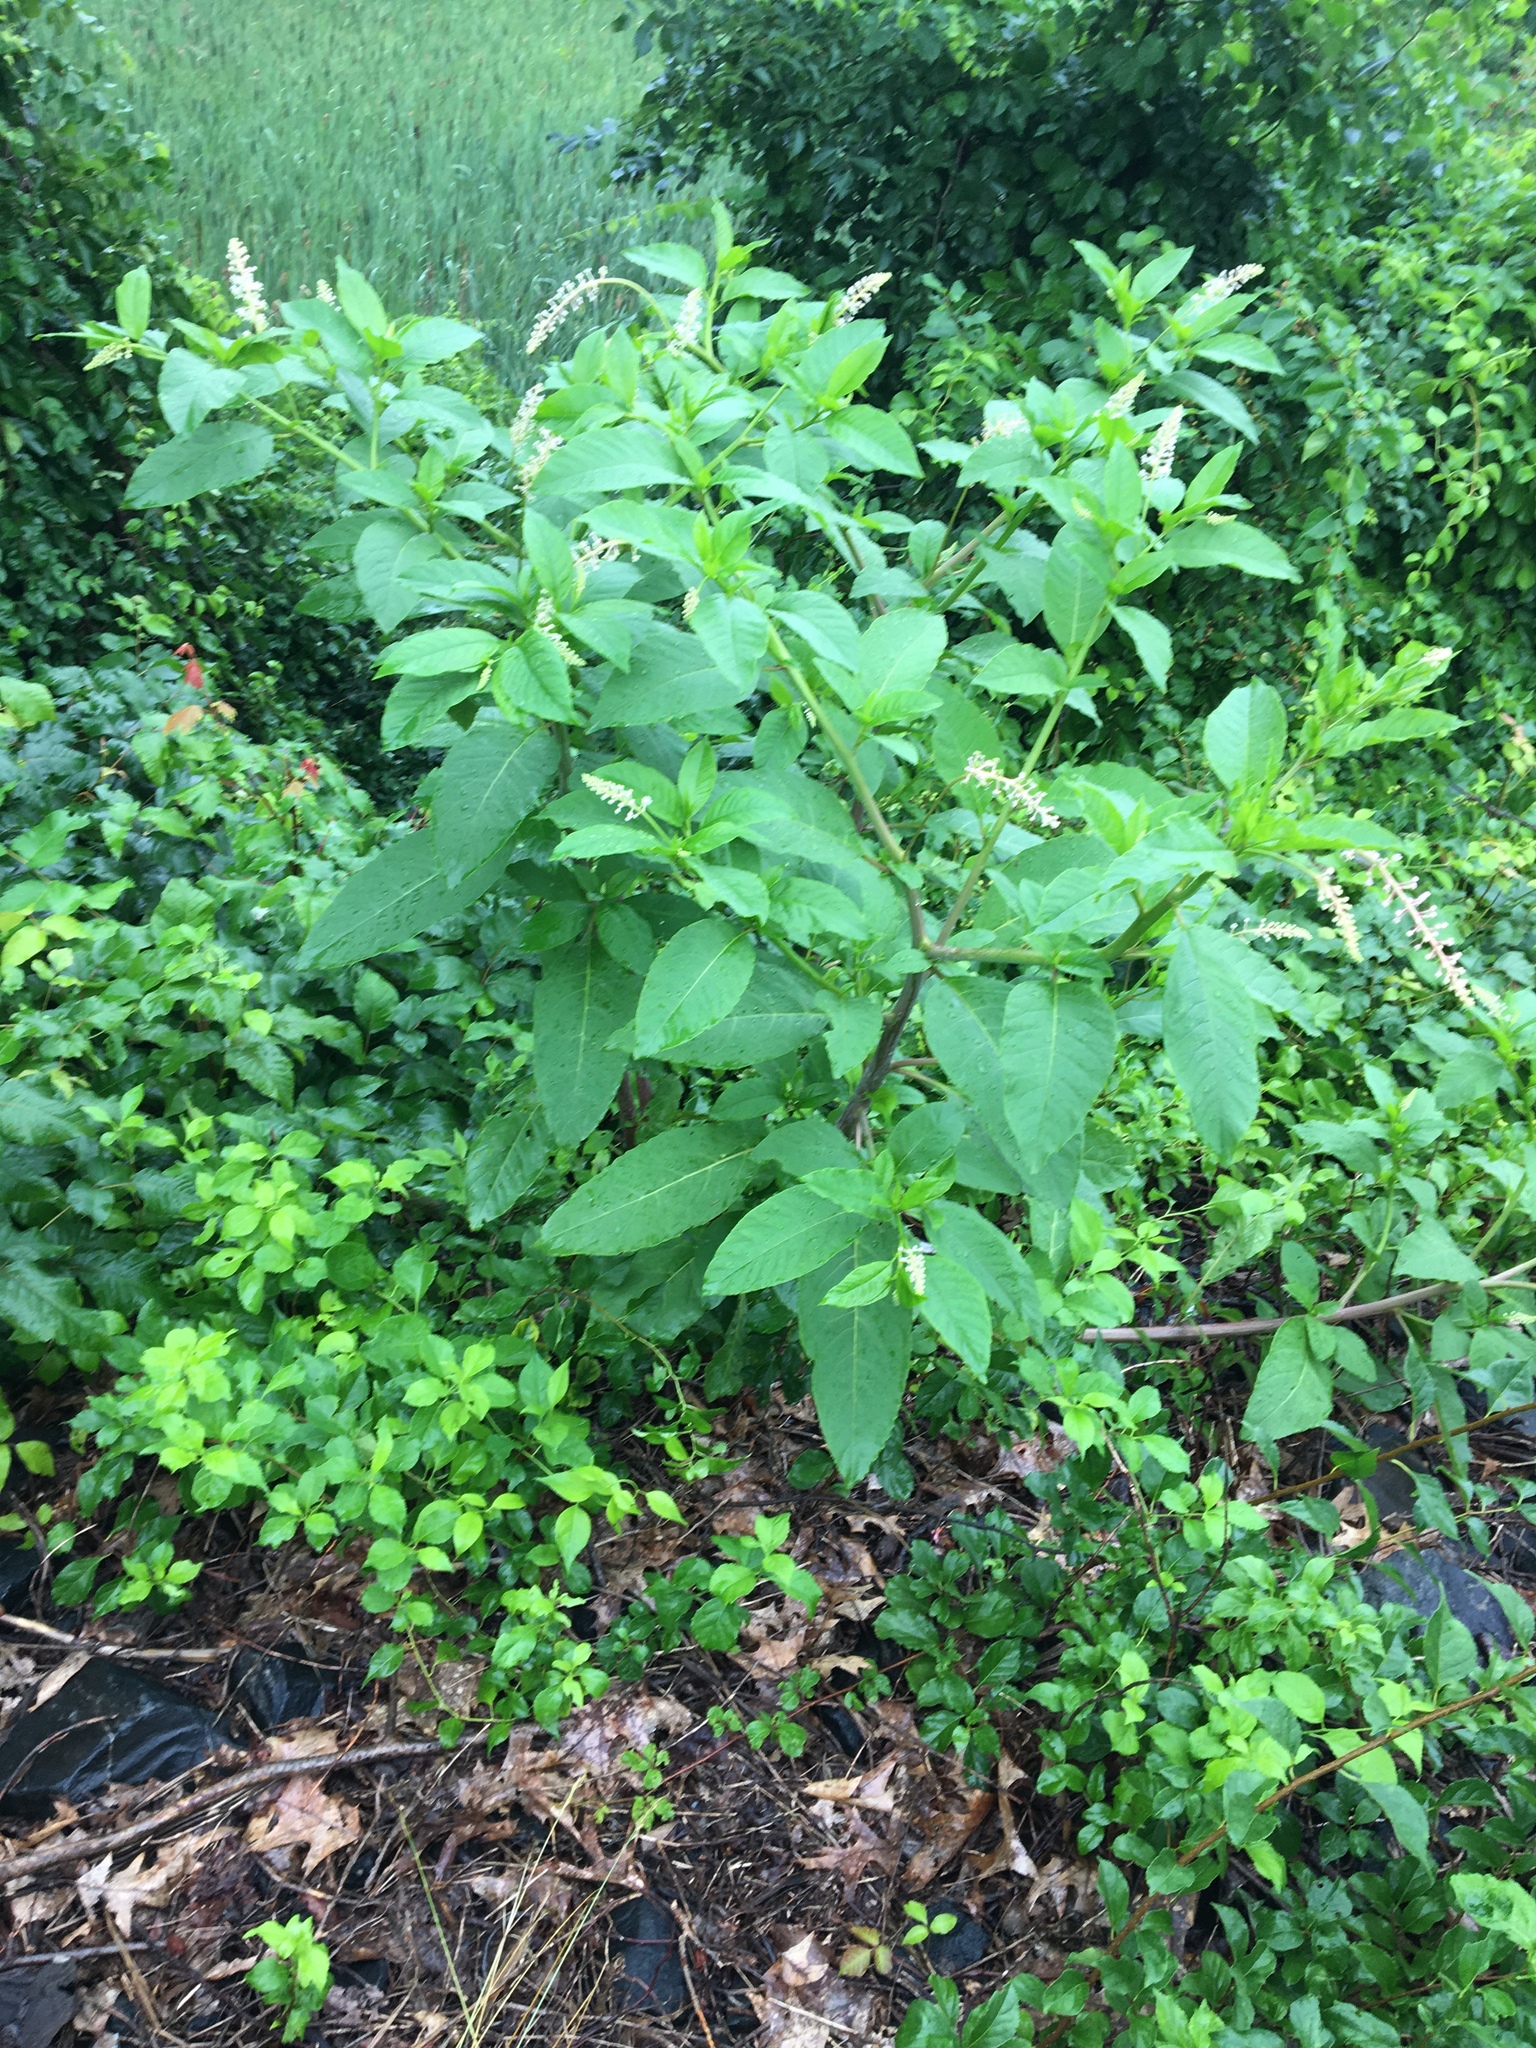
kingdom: Plantae
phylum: Tracheophyta
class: Magnoliopsida
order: Caryophyllales
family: Phytolaccaceae
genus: Phytolacca
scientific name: Phytolacca americana
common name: American pokeweed
